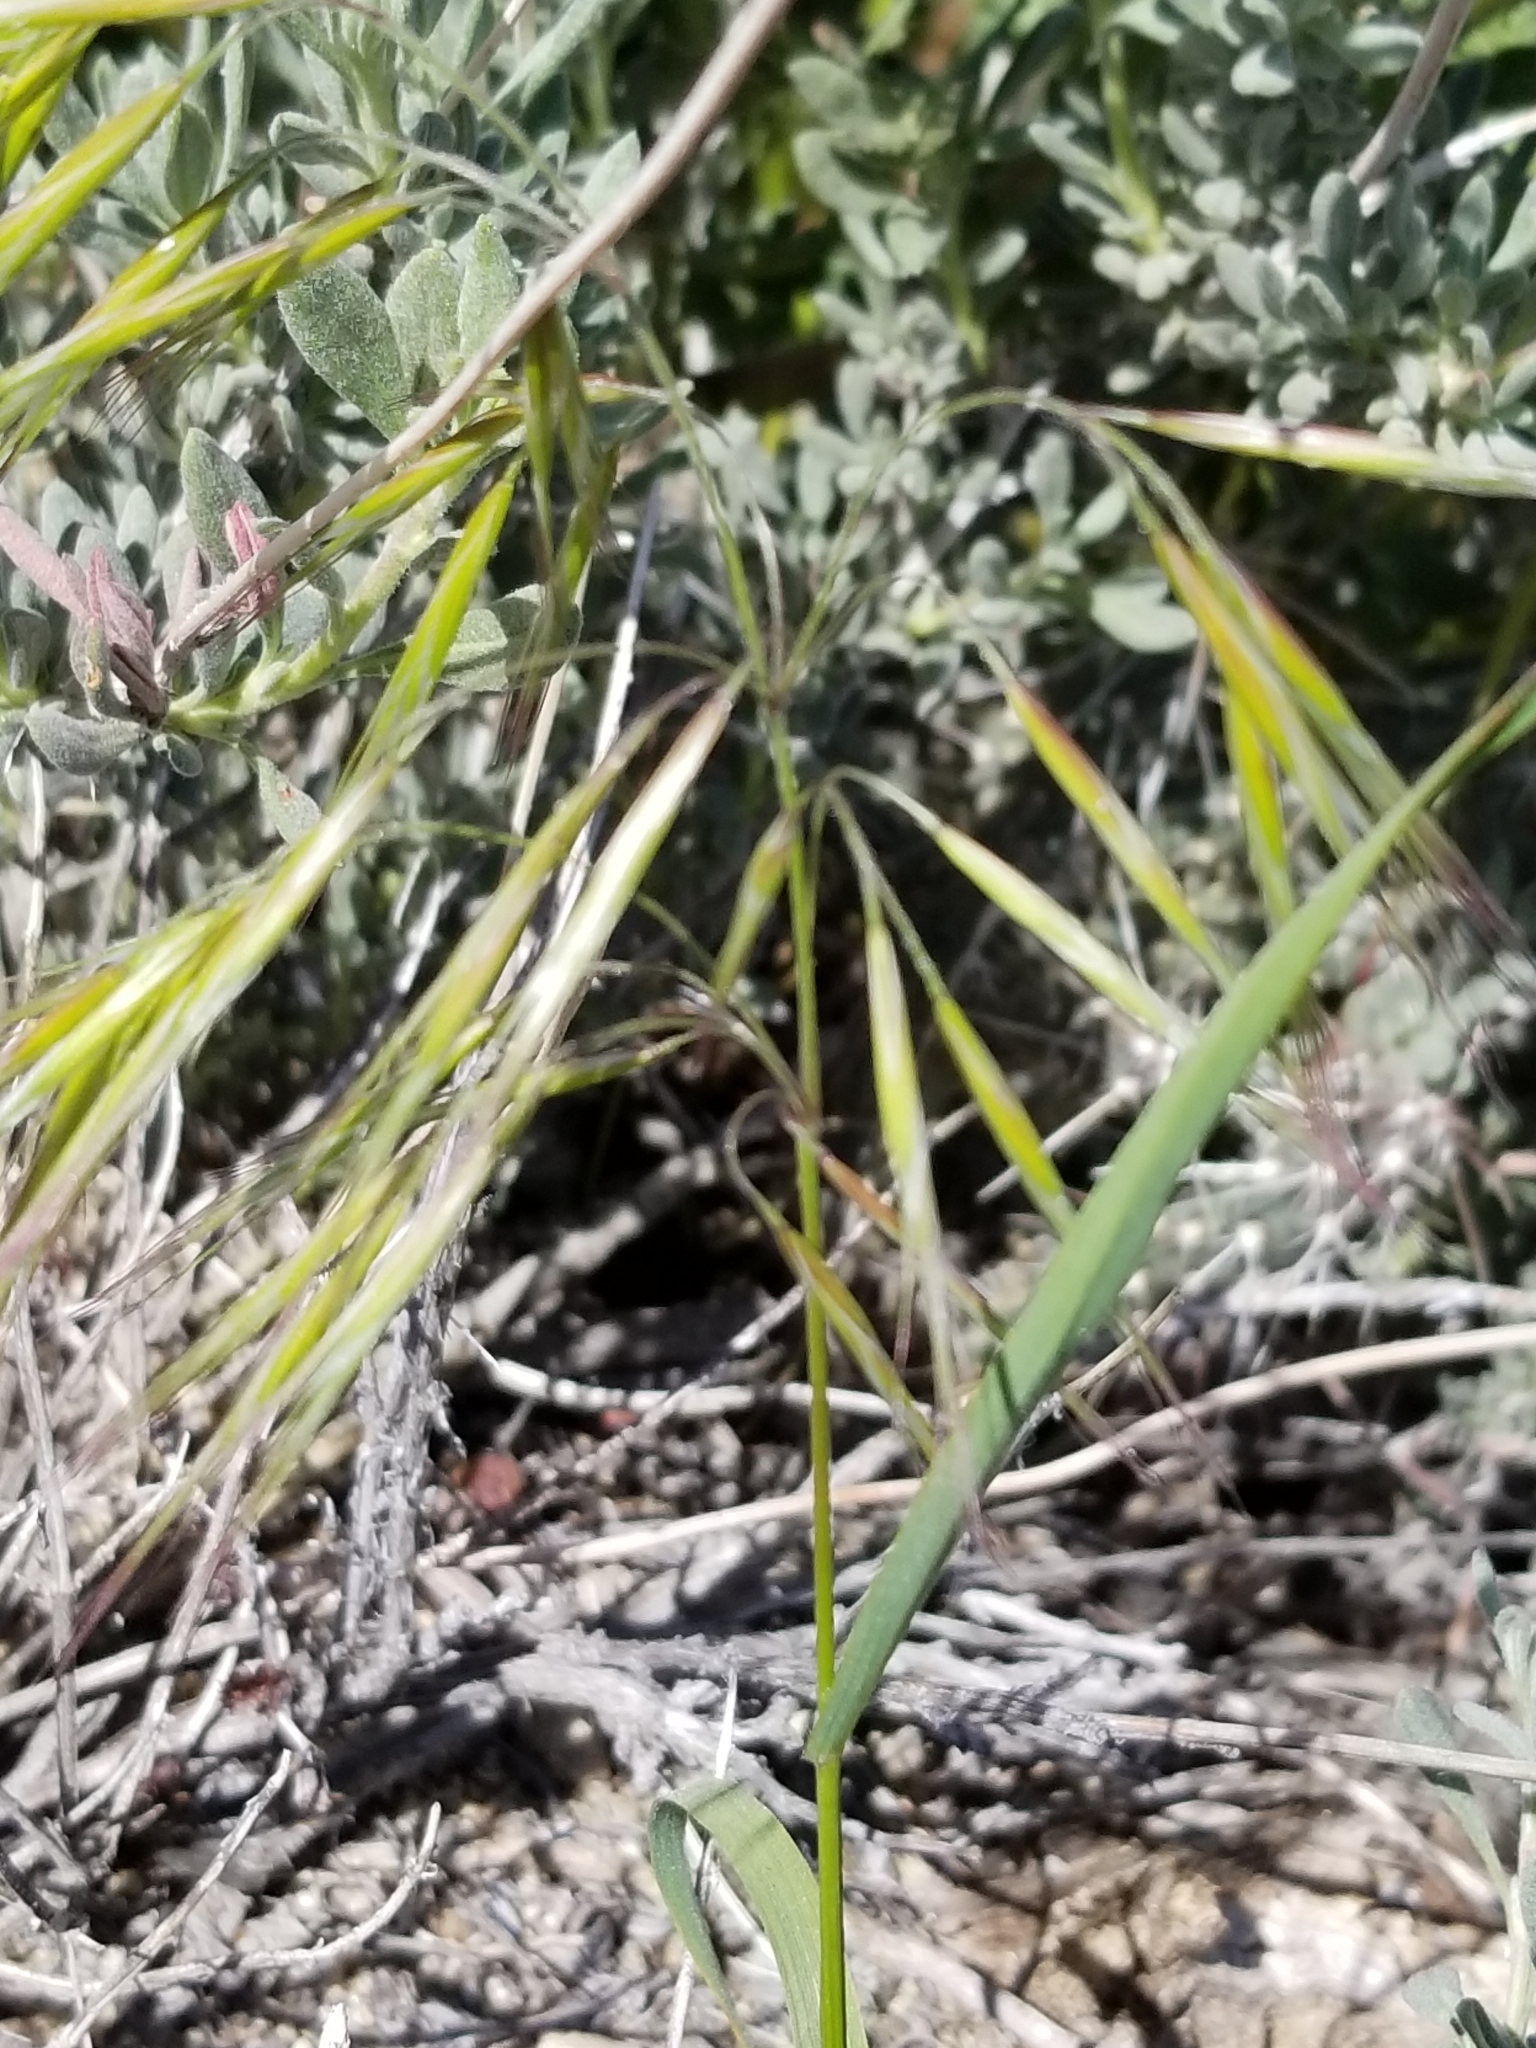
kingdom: Plantae
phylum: Tracheophyta
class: Liliopsida
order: Poales
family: Poaceae
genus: Bromus
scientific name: Bromus tectorum
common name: Cheatgrass
